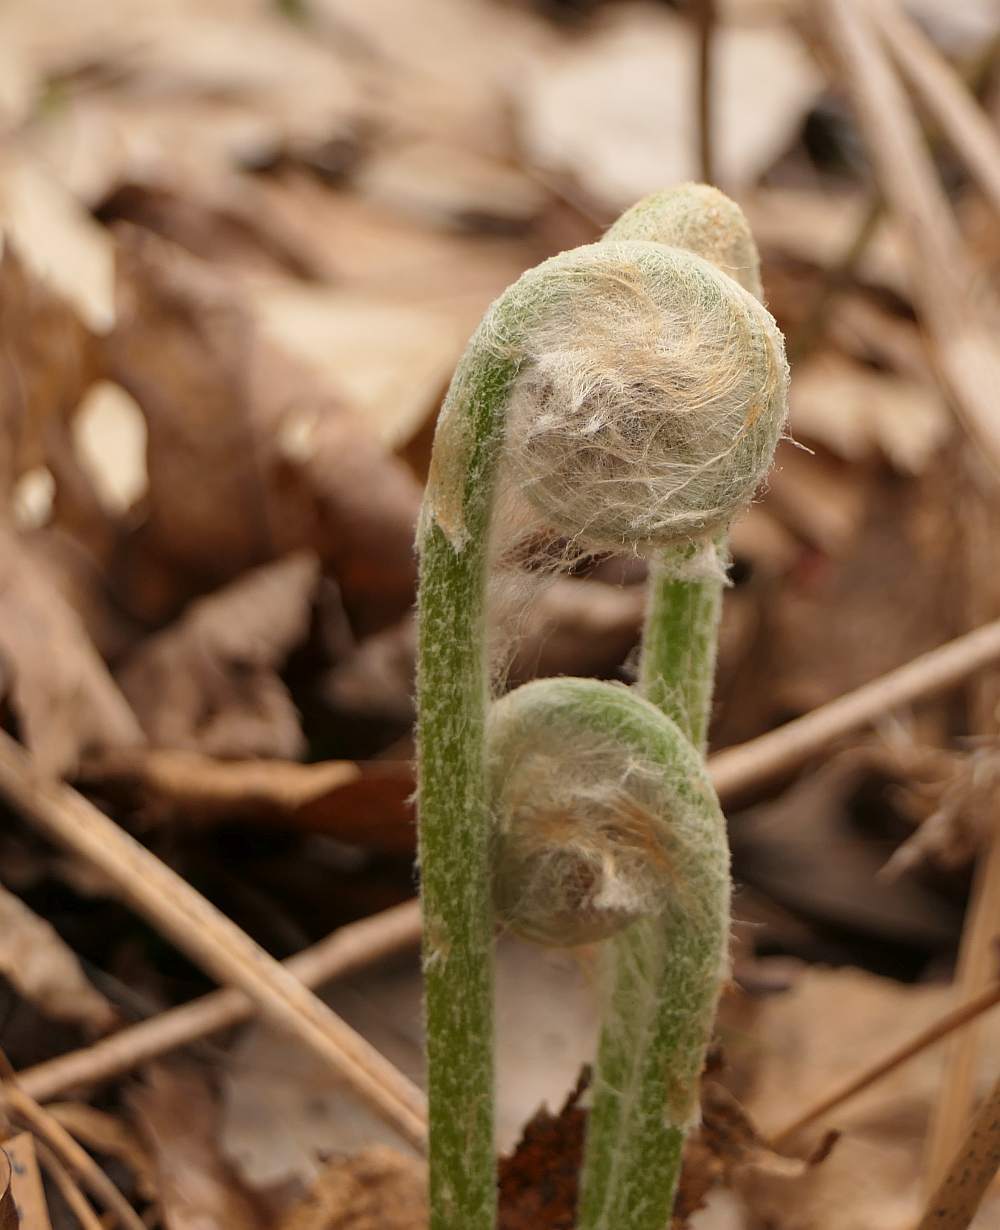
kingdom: Plantae
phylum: Tracheophyta
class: Polypodiopsida
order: Osmundales
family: Osmundaceae
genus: Osmundastrum
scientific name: Osmundastrum cinnamomeum
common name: Cinnamon fern
